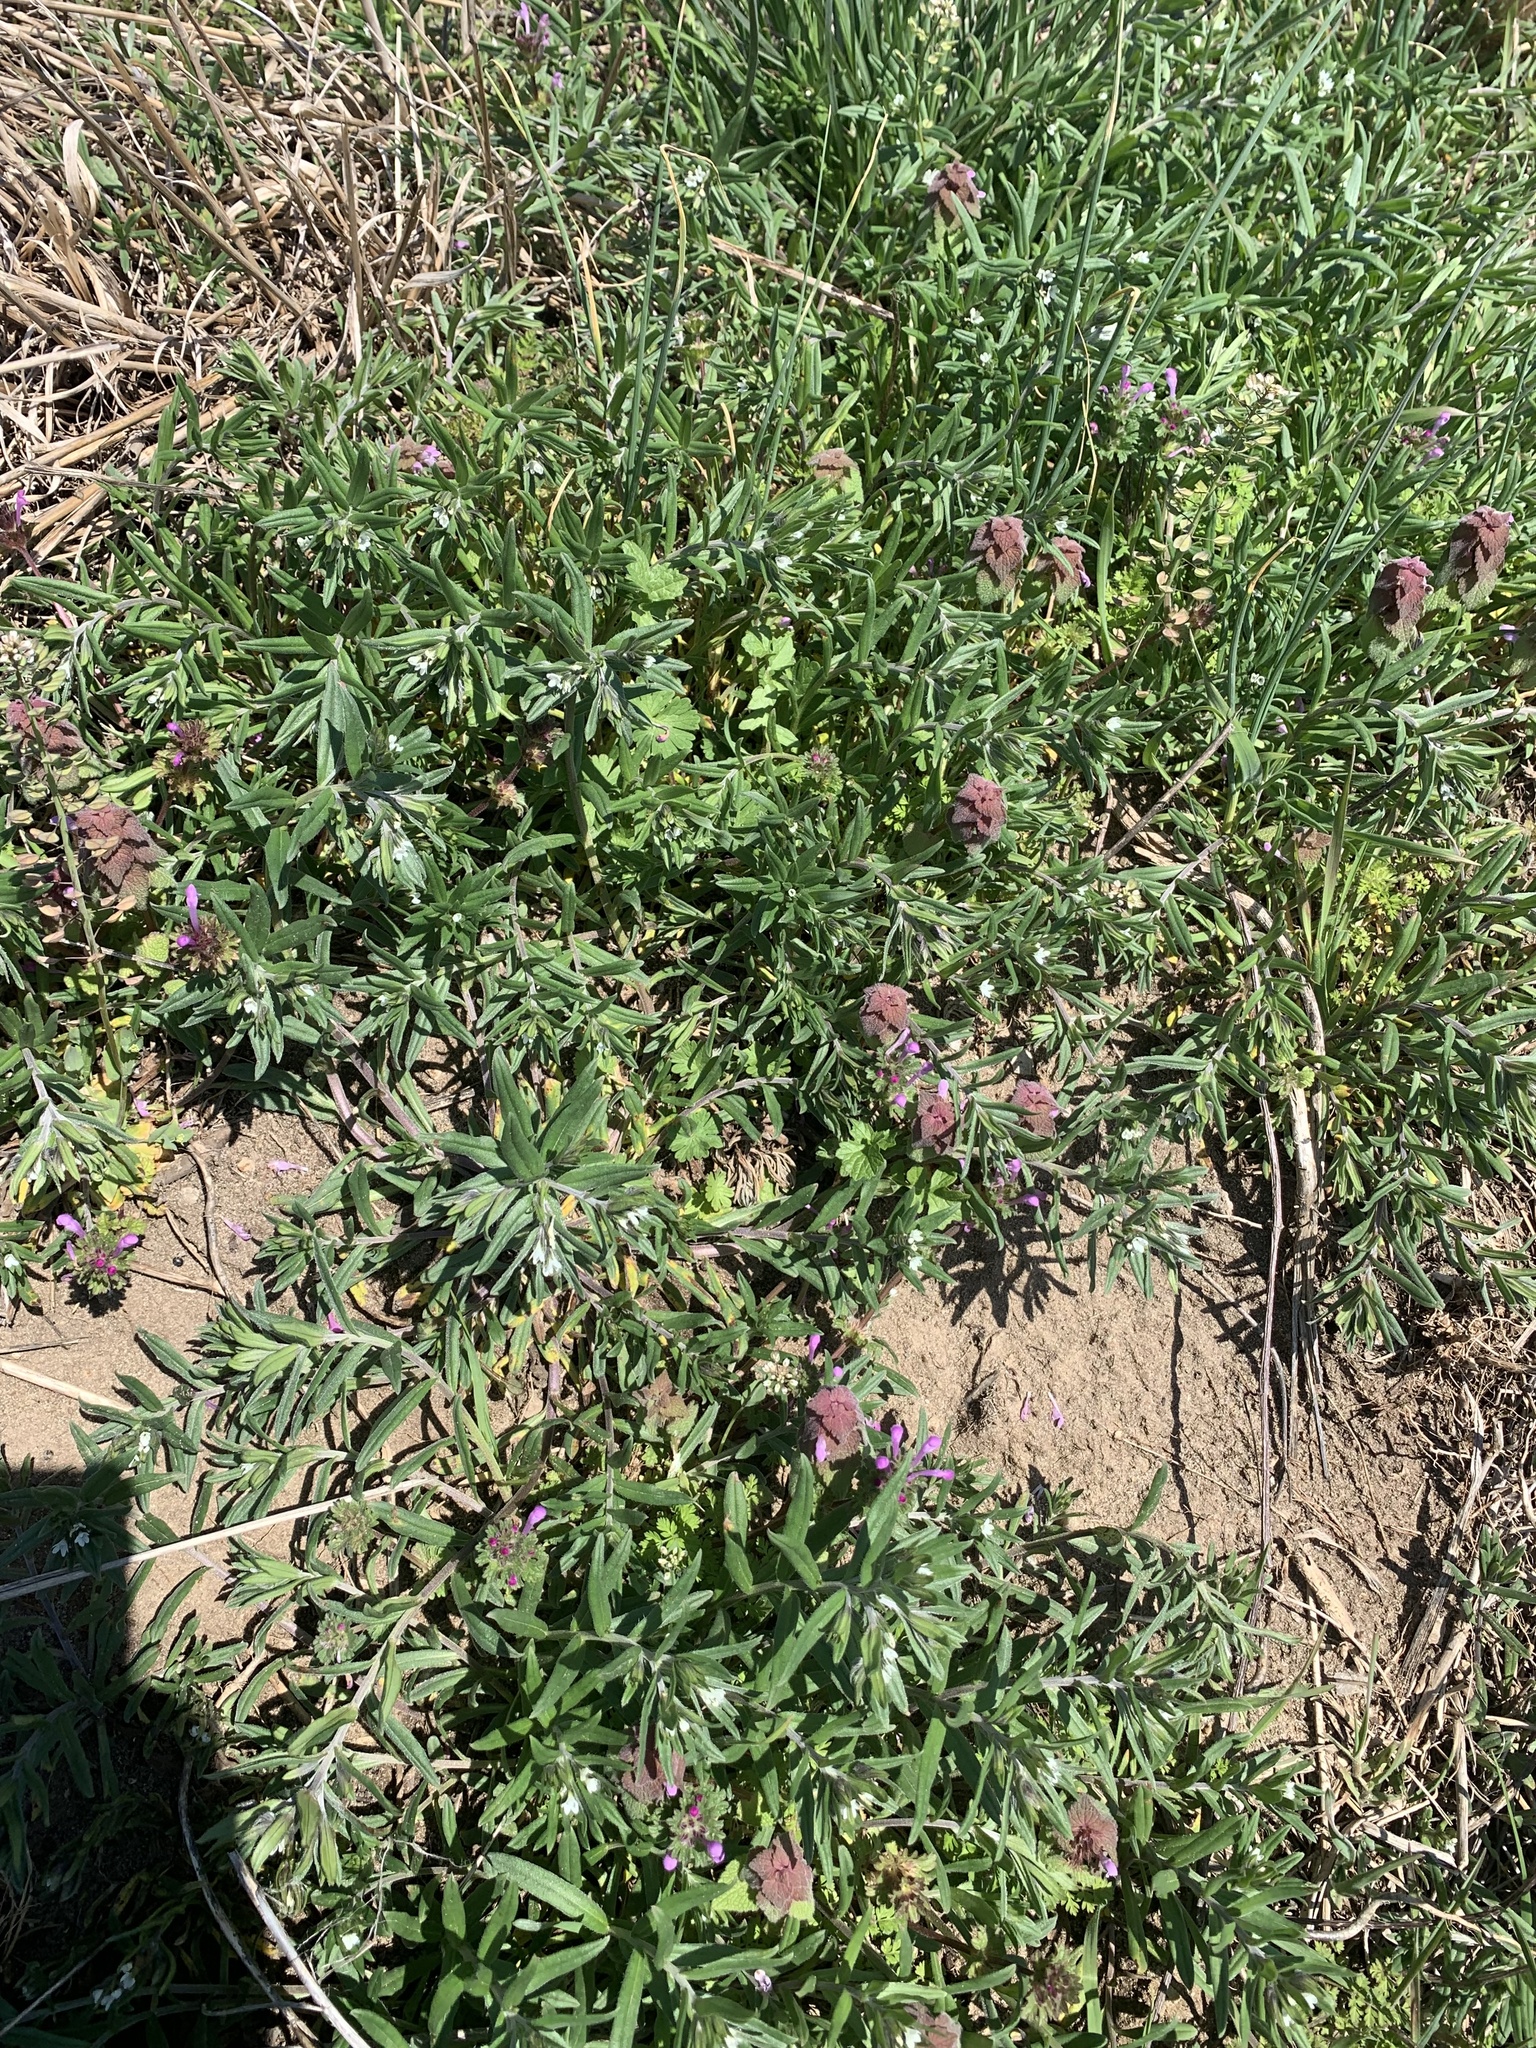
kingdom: Plantae
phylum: Tracheophyta
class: Magnoliopsida
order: Boraginales
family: Boraginaceae
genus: Buglossoides
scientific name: Buglossoides arvensis
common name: Corn gromwell
